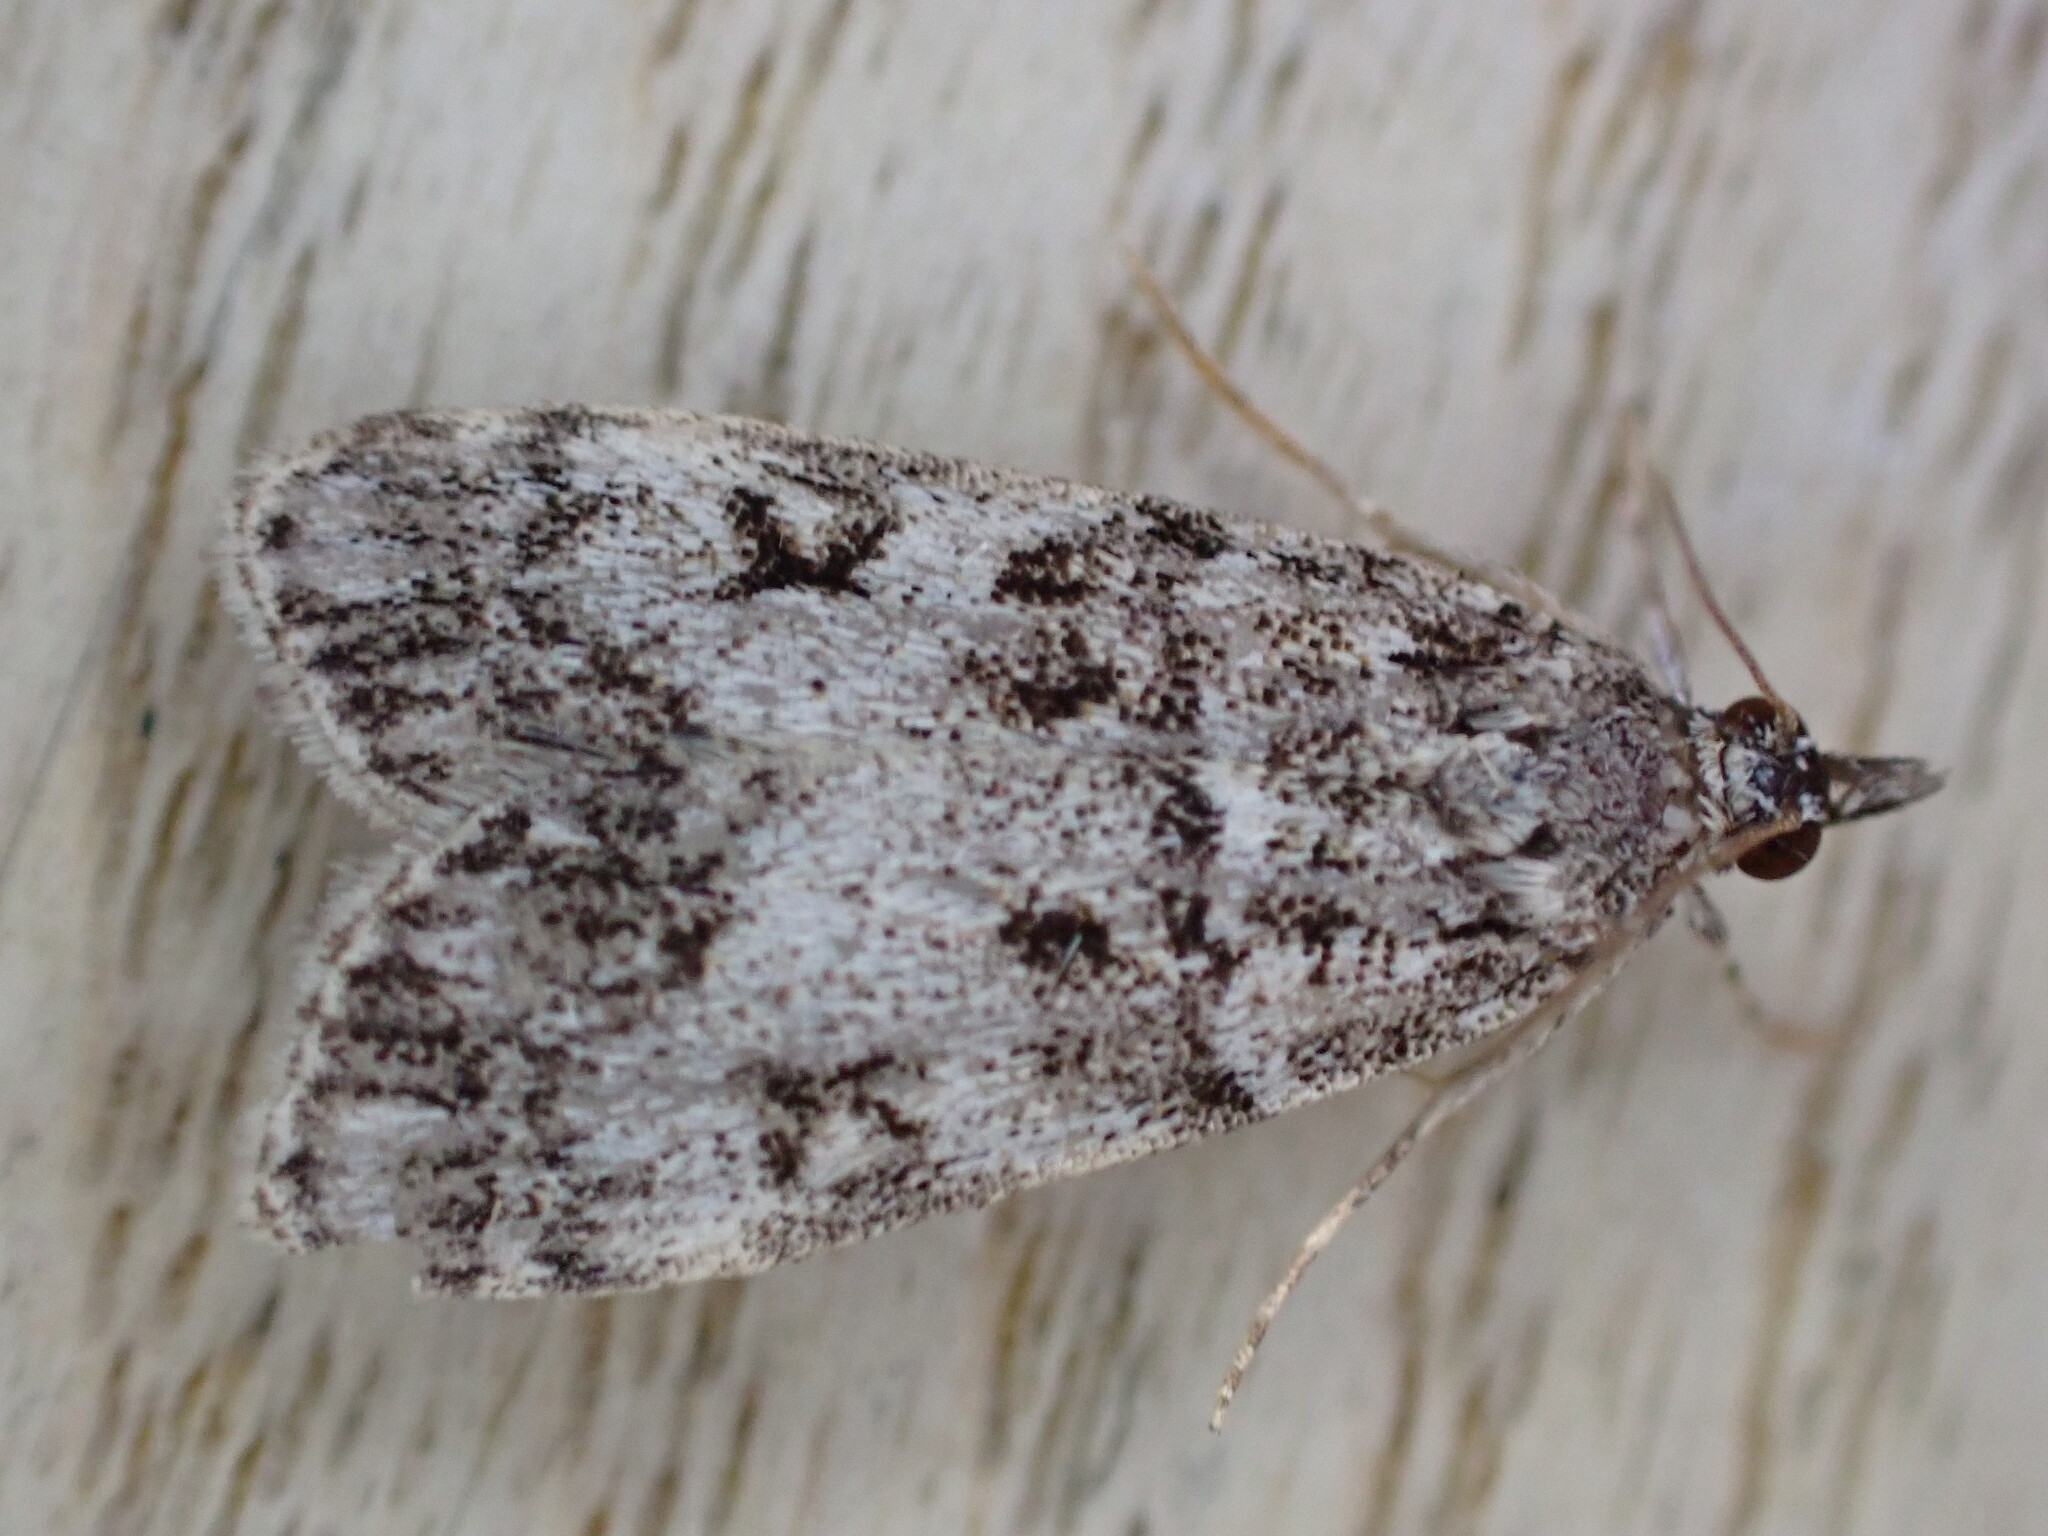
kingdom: Animalia
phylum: Arthropoda
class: Insecta
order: Lepidoptera
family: Crambidae
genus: Eudonia
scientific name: Eudonia lacustrata
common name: Little grey
